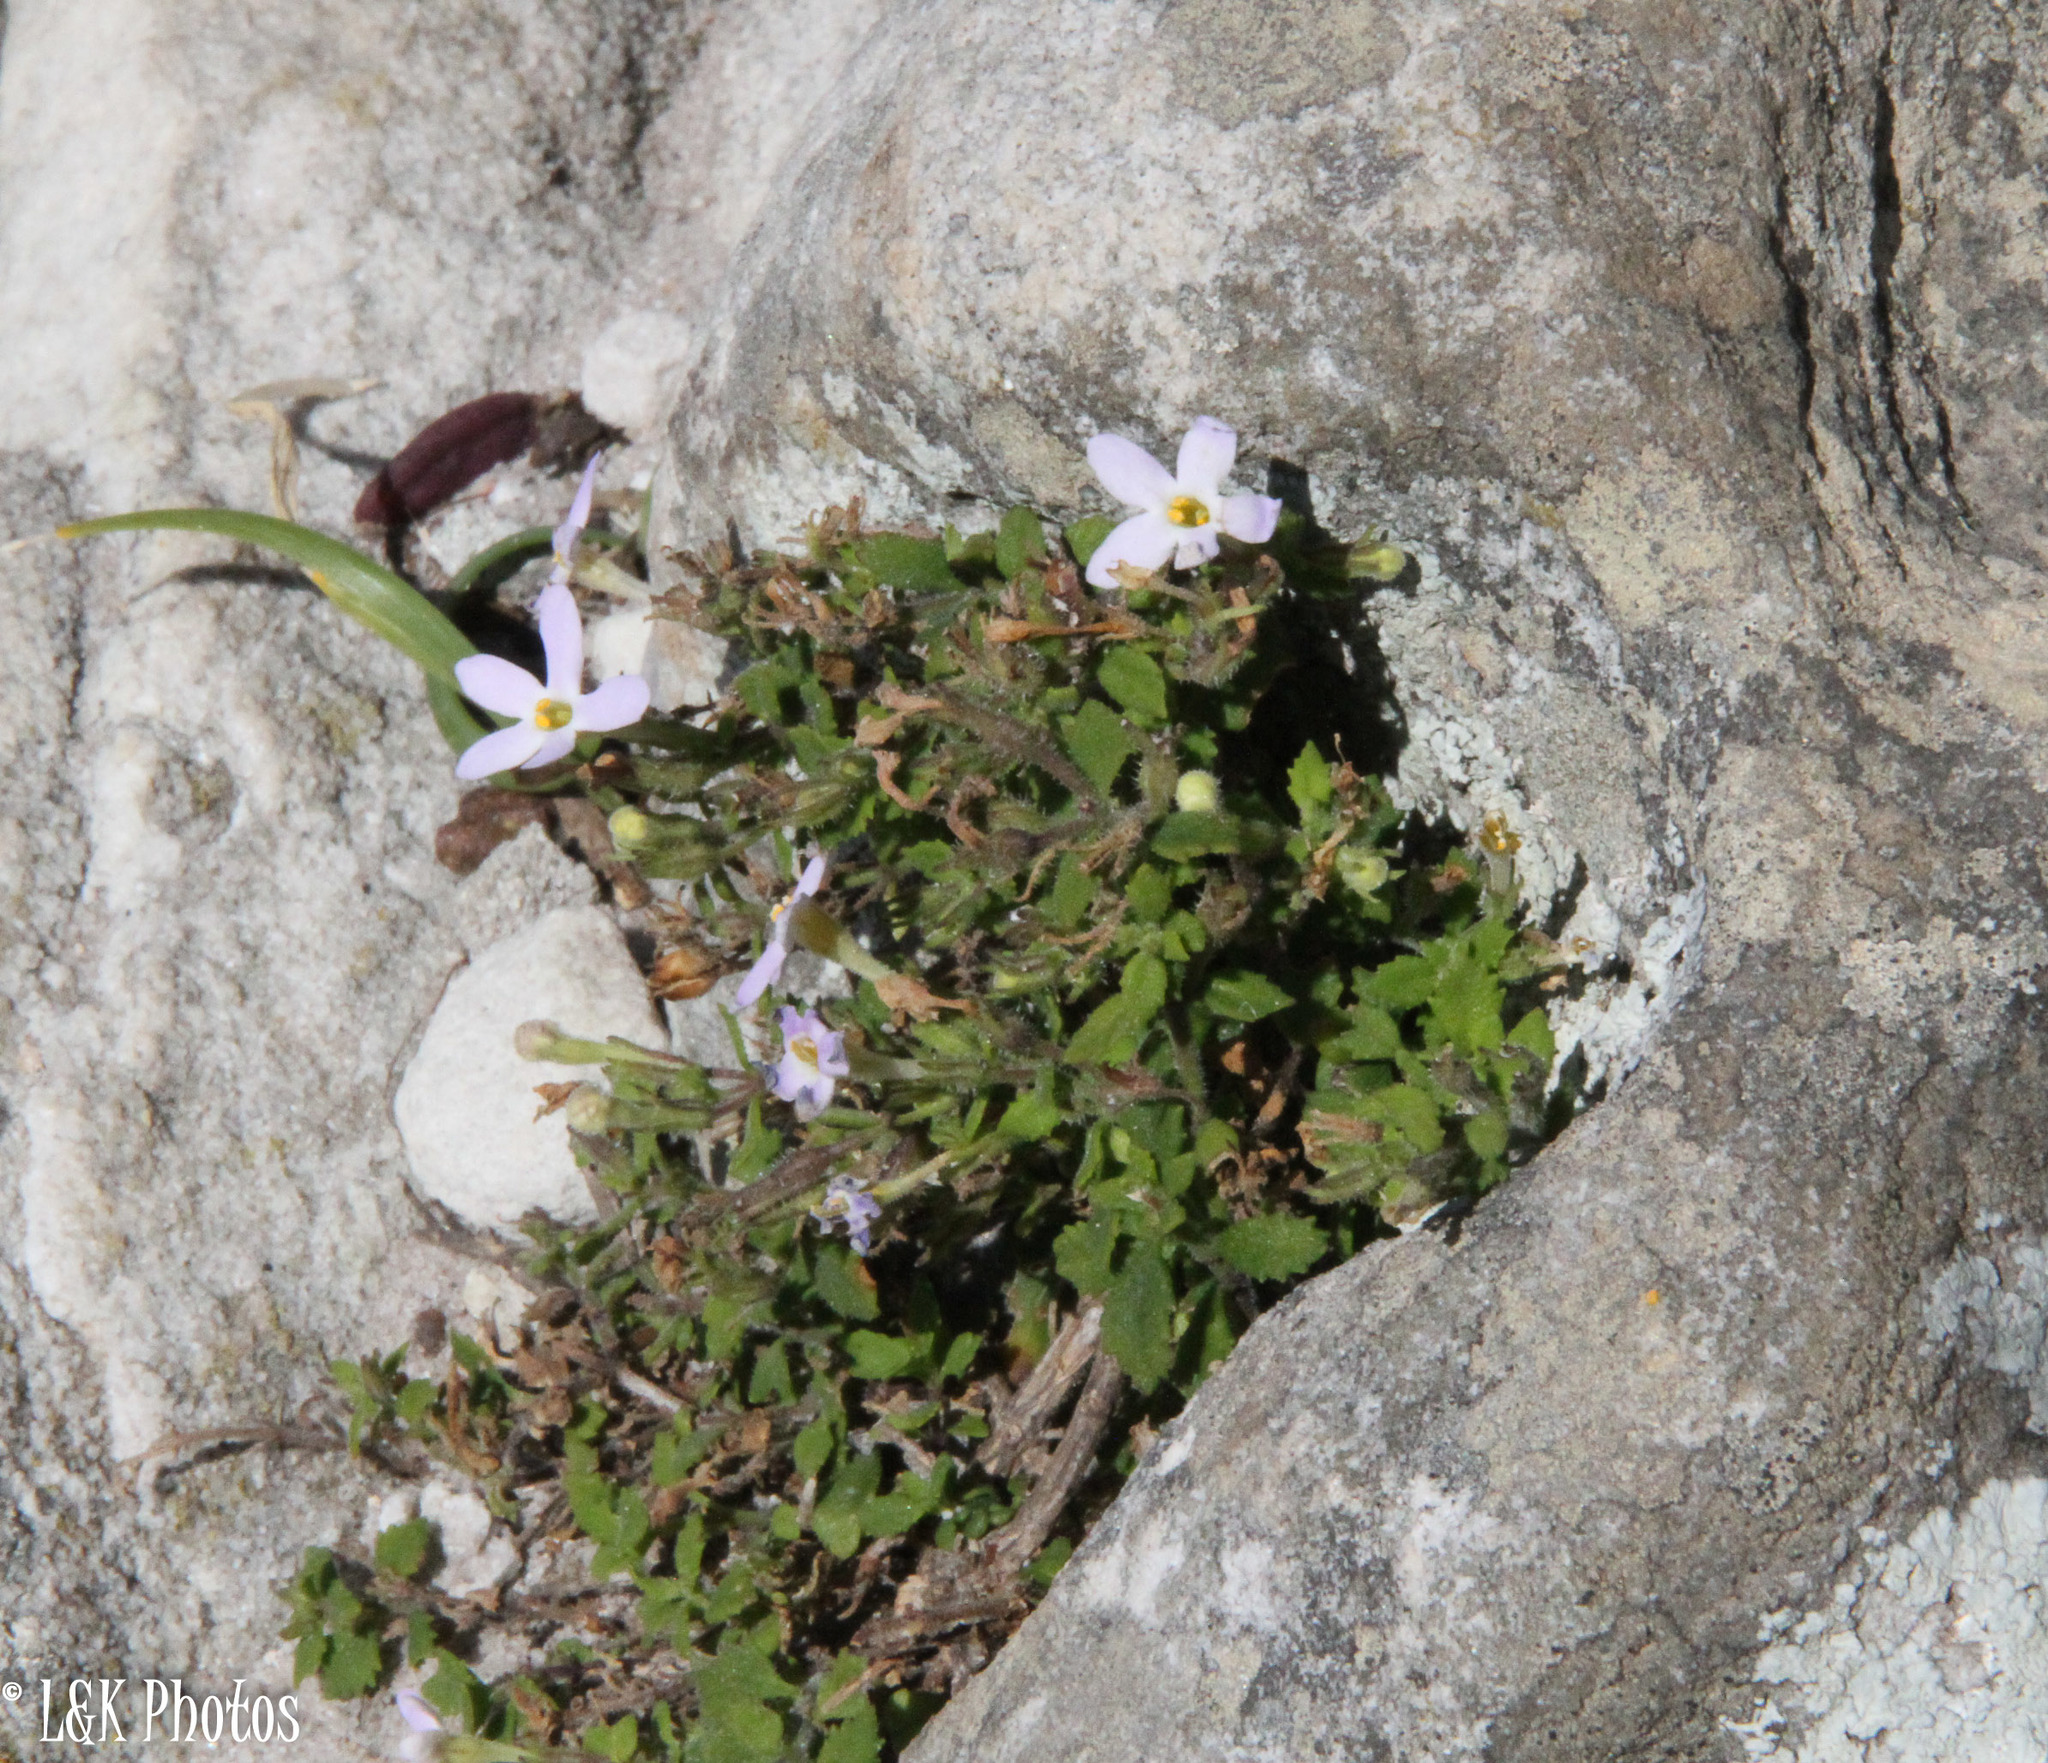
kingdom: Plantae
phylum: Tracheophyta
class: Magnoliopsida
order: Lamiales
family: Scrophulariaceae
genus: Chaenostoma
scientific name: Chaenostoma hispidum
